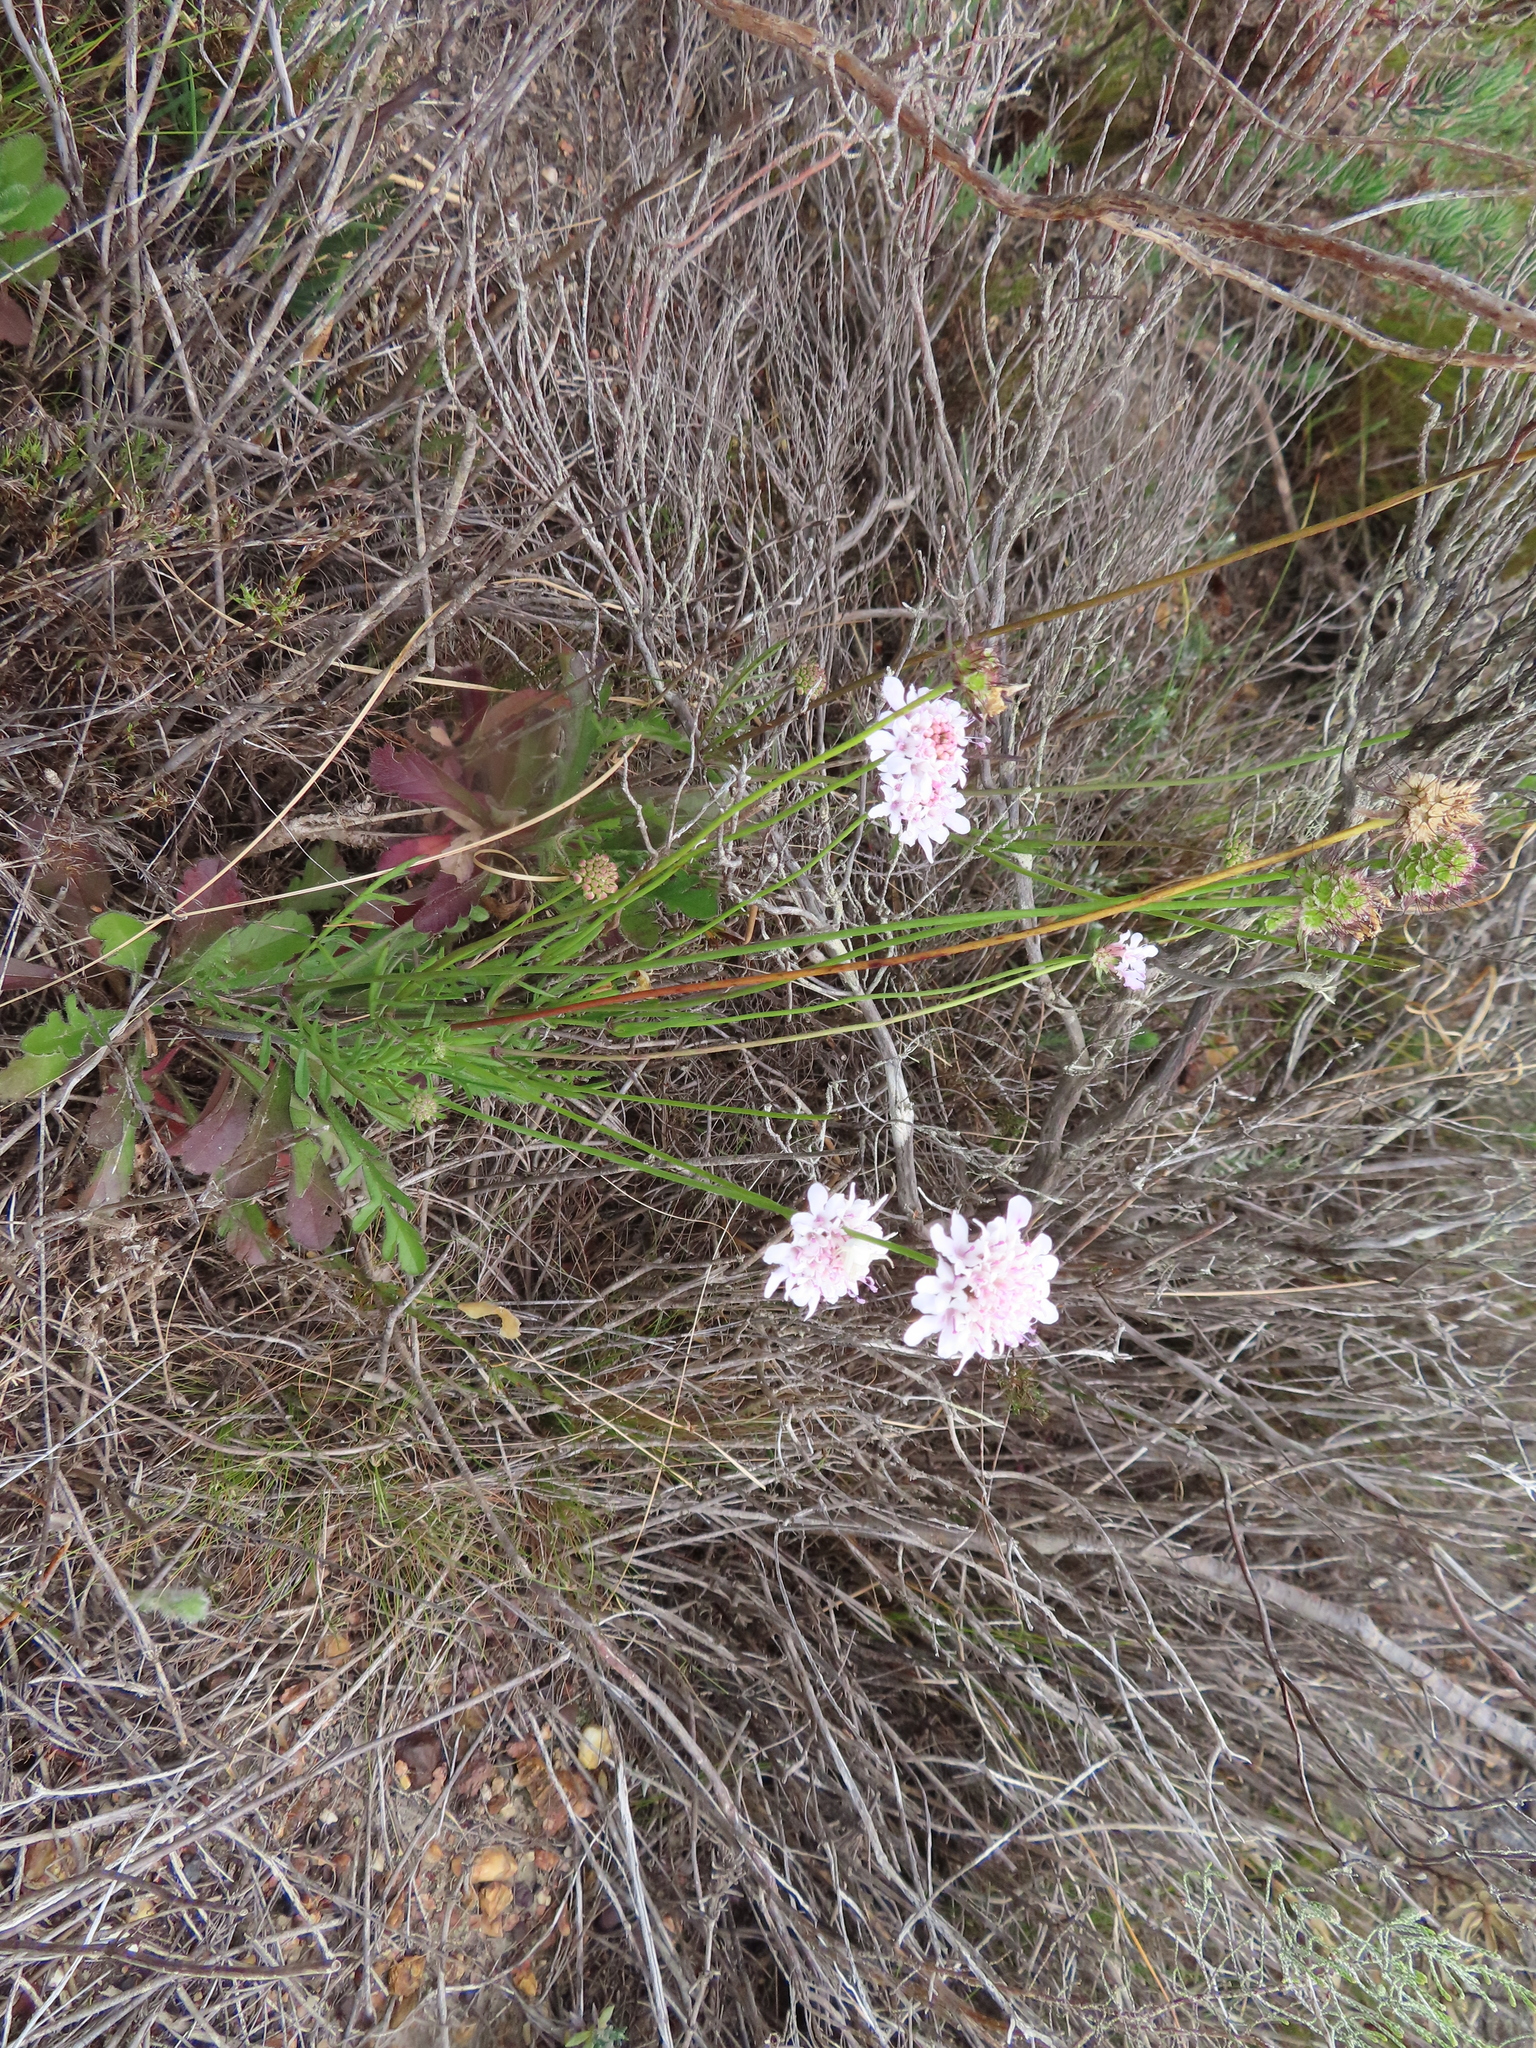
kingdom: Plantae
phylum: Tracheophyta
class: Magnoliopsida
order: Dipsacales
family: Caprifoliaceae
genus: Scabiosa
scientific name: Scabiosa columbaria
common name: Small scabious
